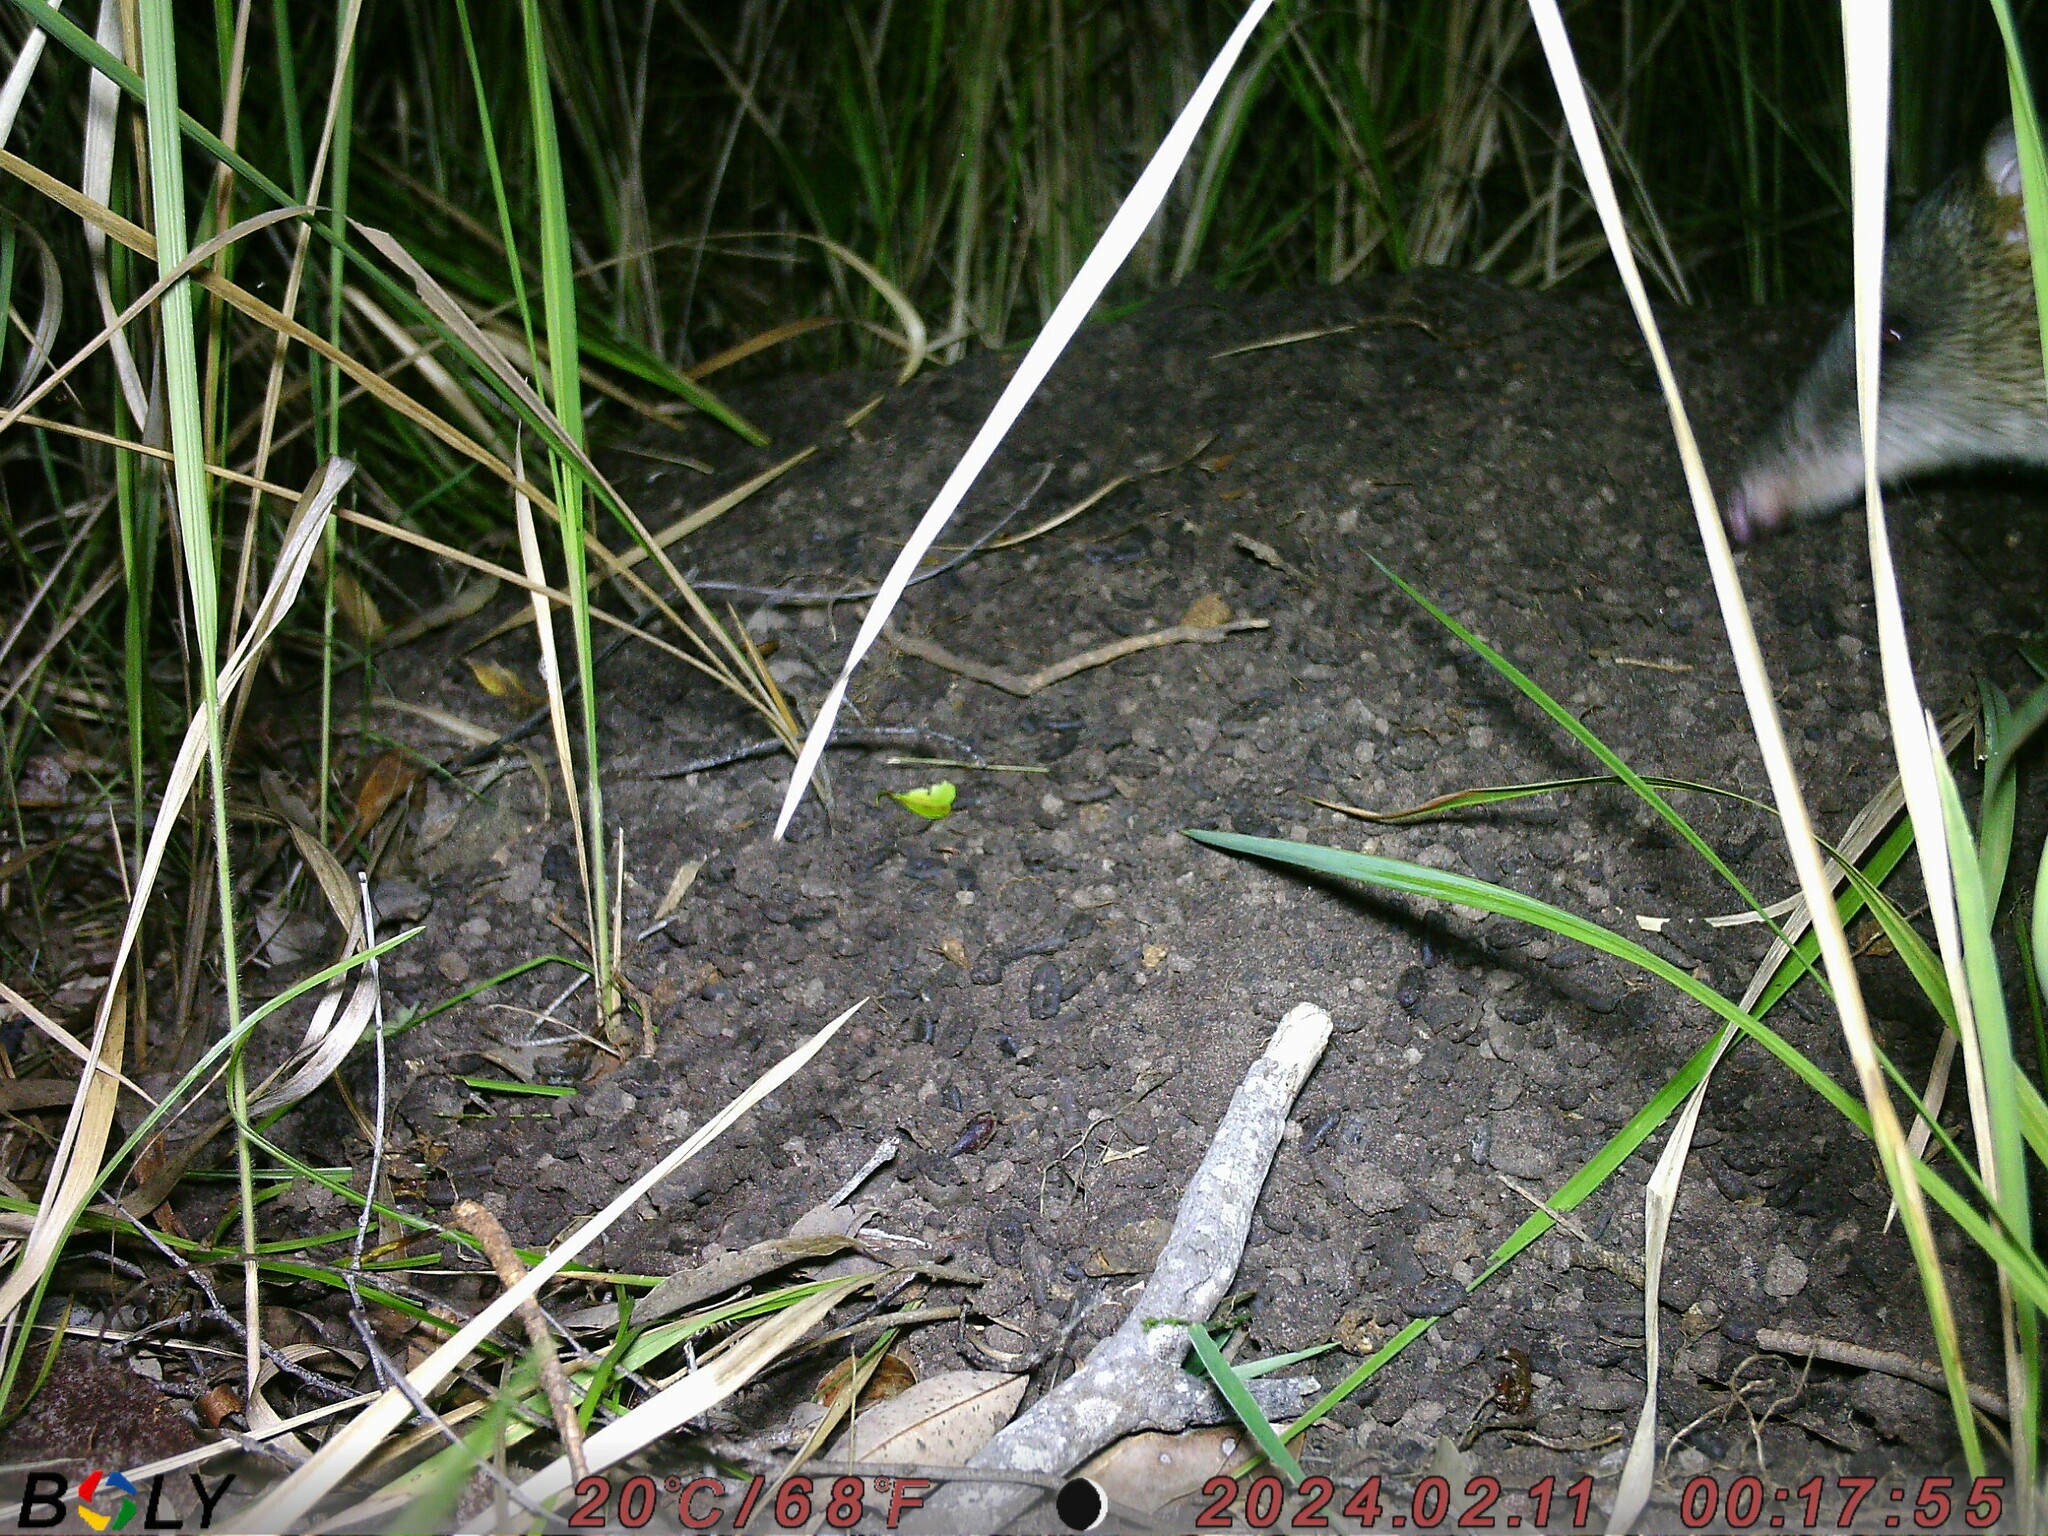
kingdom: Animalia
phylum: Chordata
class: Mammalia
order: Peramelemorphia
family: Peramelidae
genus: Isoodon
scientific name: Isoodon macrourus
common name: Northern brown bandicoot
